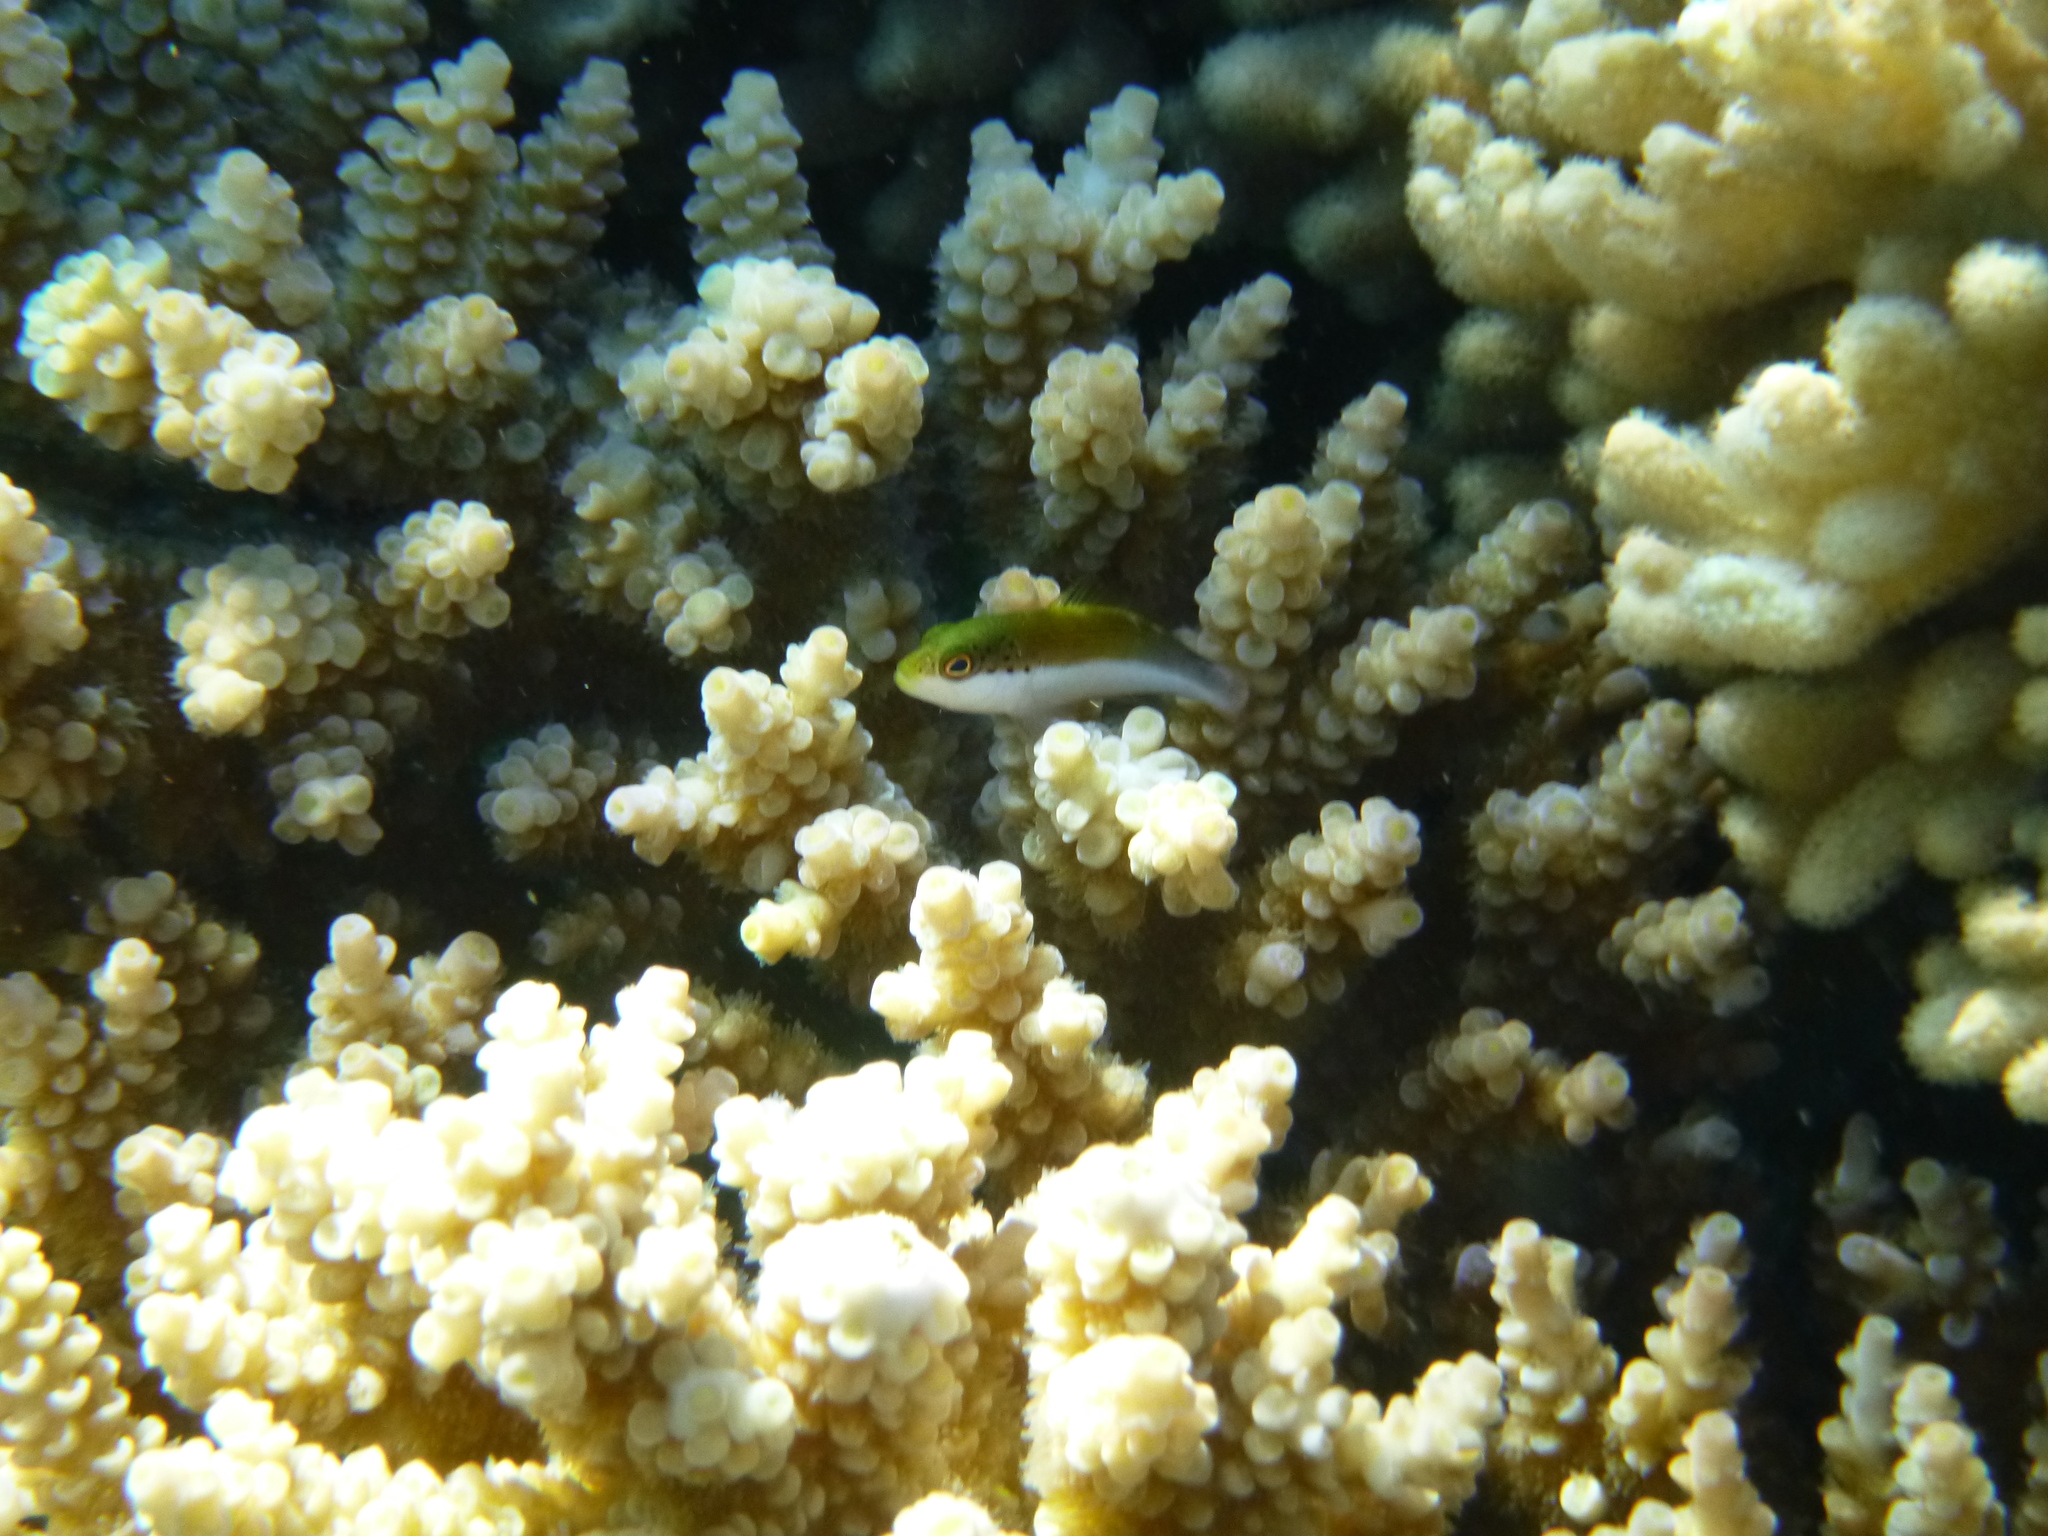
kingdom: Animalia
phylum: Chordata
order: Perciformes
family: Cirrhitidae
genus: Paracirrhites
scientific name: Paracirrhites forsteri
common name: Freckled hawkfish
